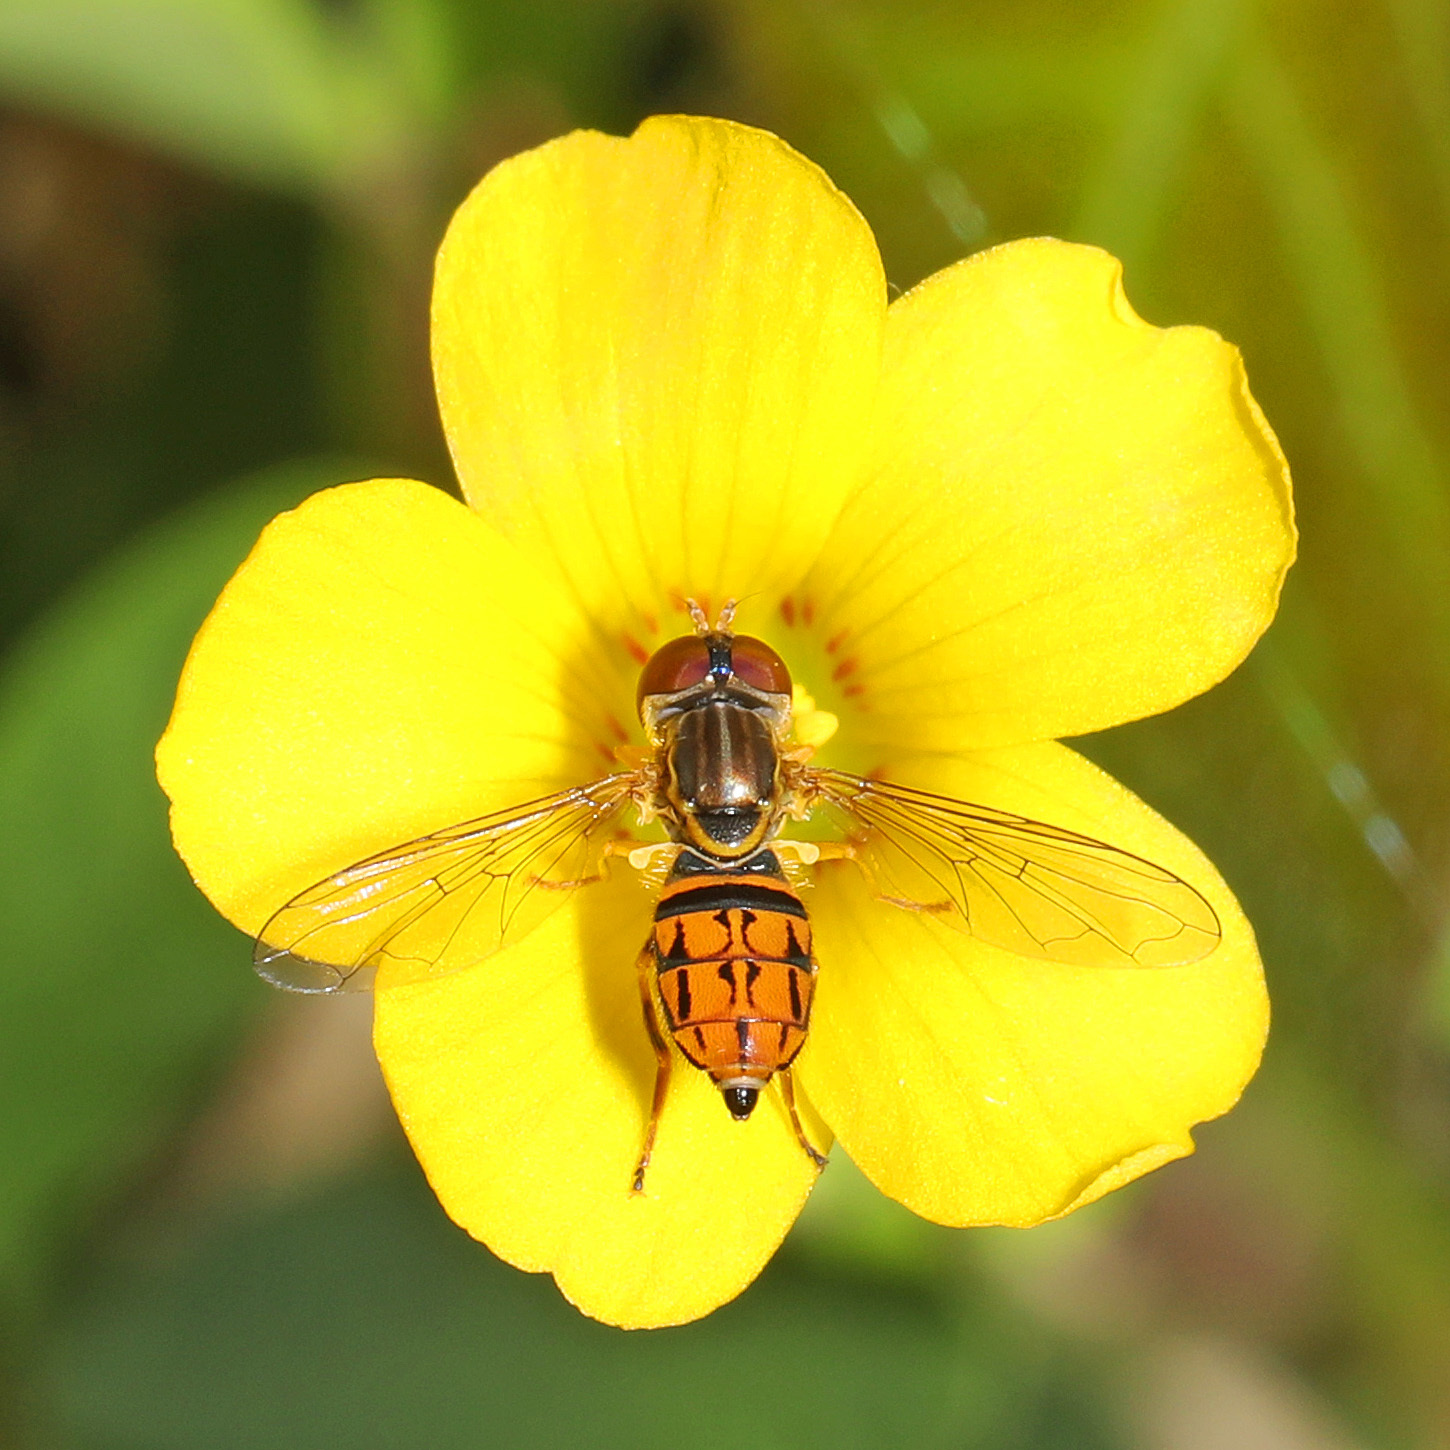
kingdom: Animalia
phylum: Arthropoda
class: Insecta
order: Diptera
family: Syrphidae
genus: Toxomerus
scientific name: Toxomerus boscii
